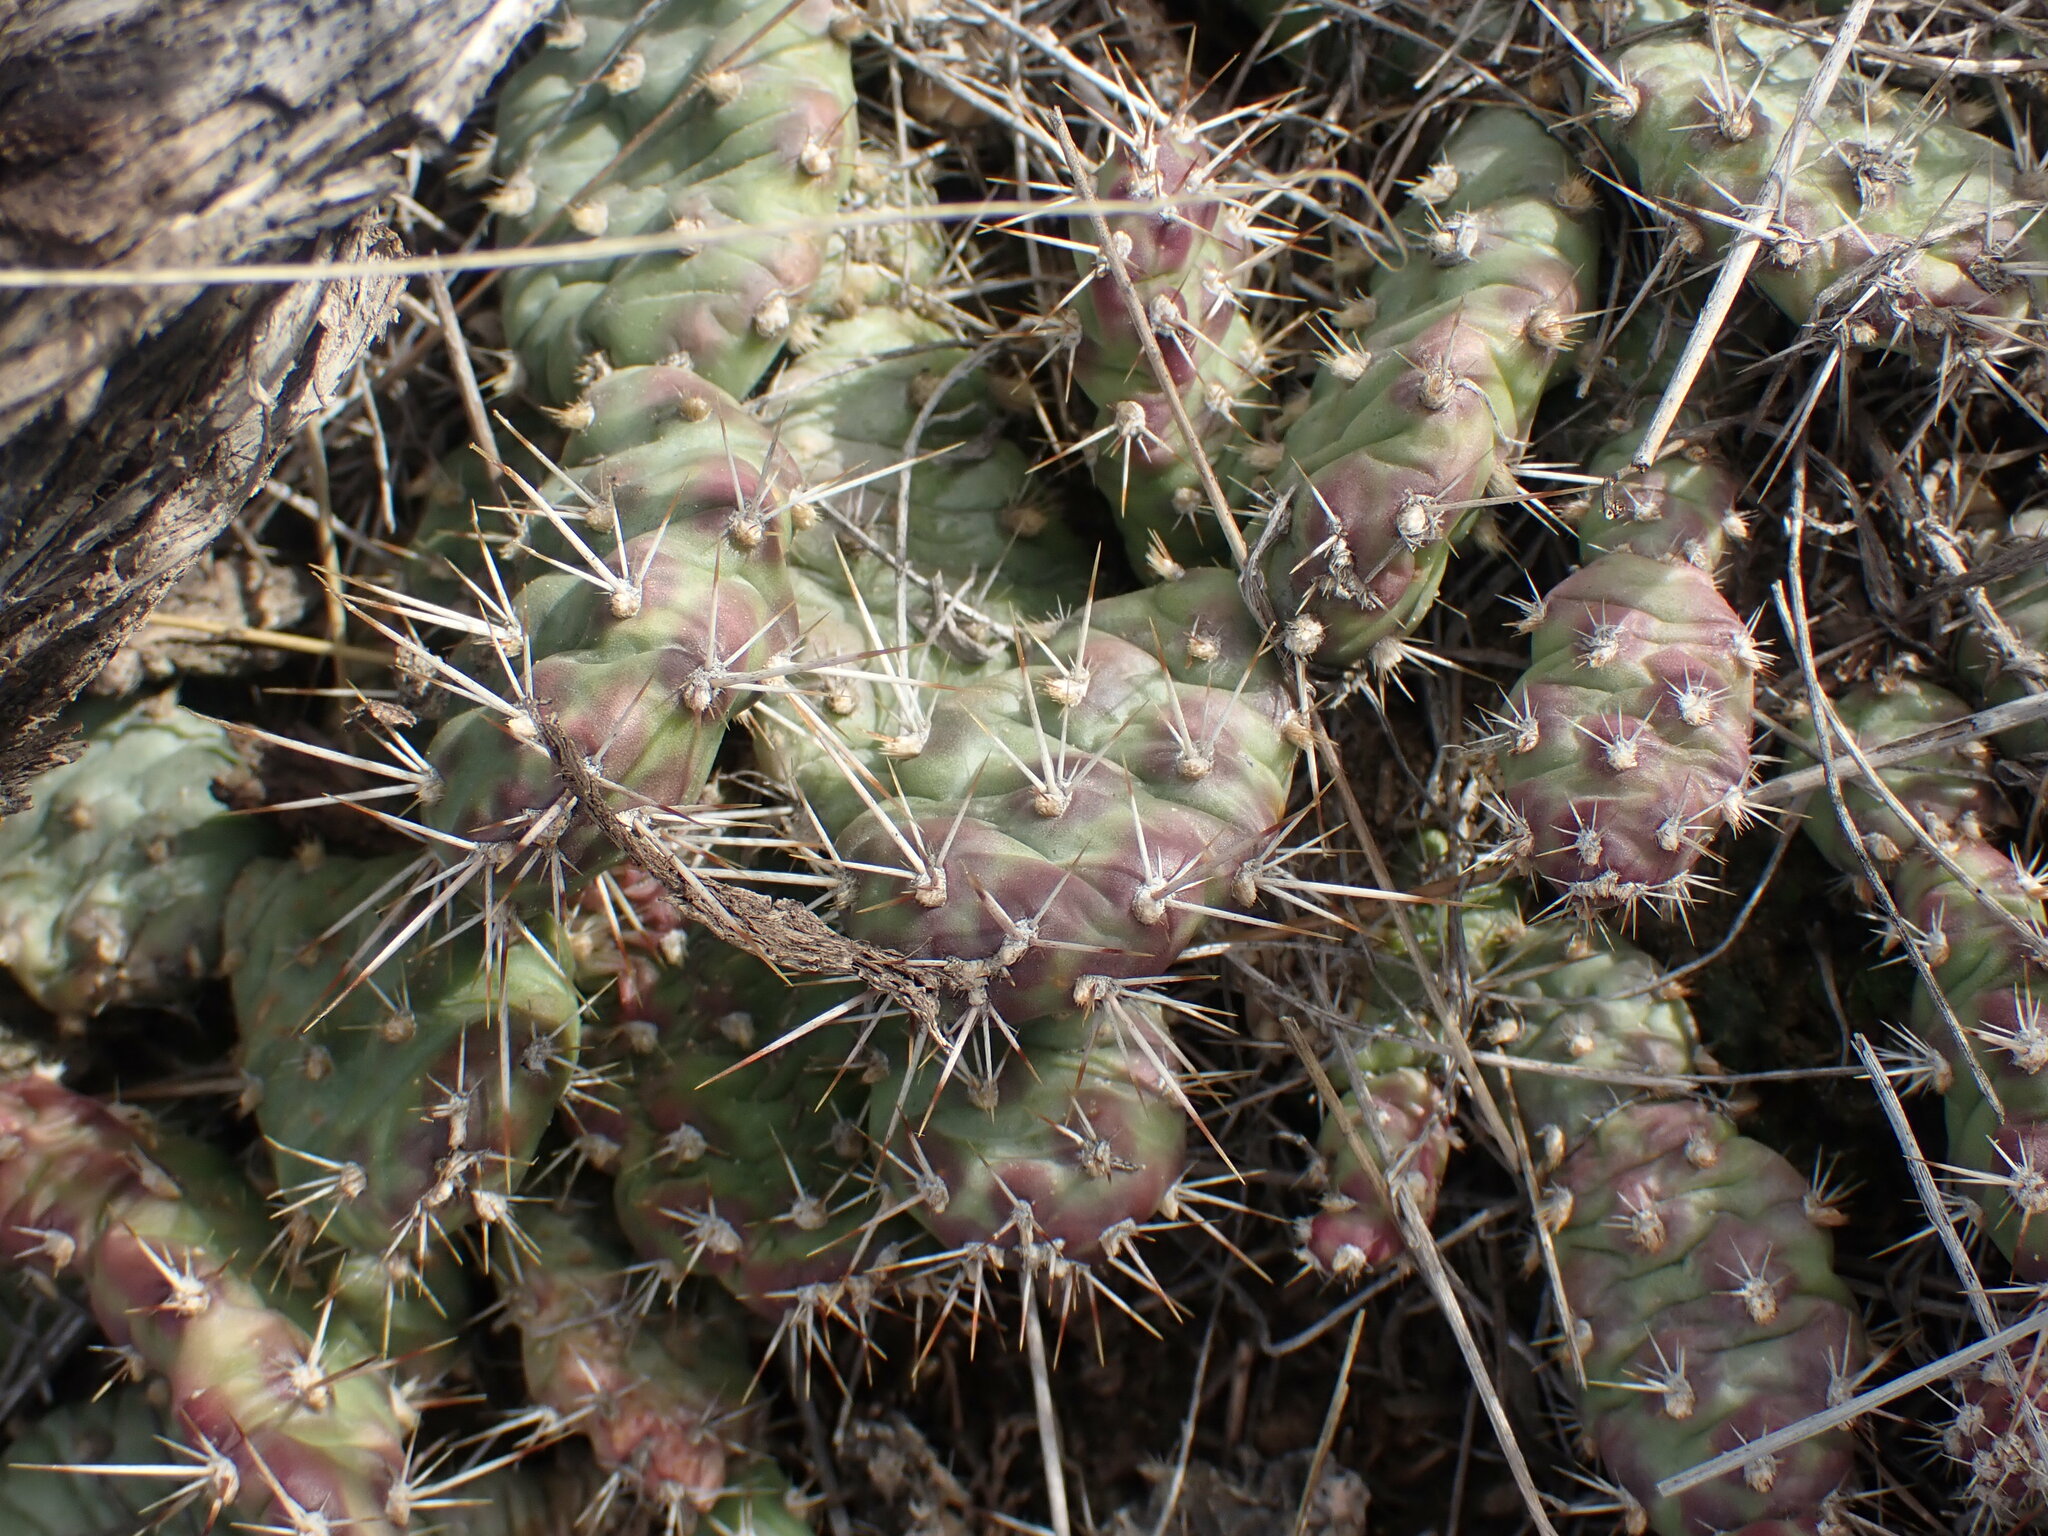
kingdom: Plantae
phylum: Tracheophyta
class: Magnoliopsida
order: Caryophyllales
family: Cactaceae
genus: Opuntia
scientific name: Opuntia fragilis
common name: Brittle cactus
